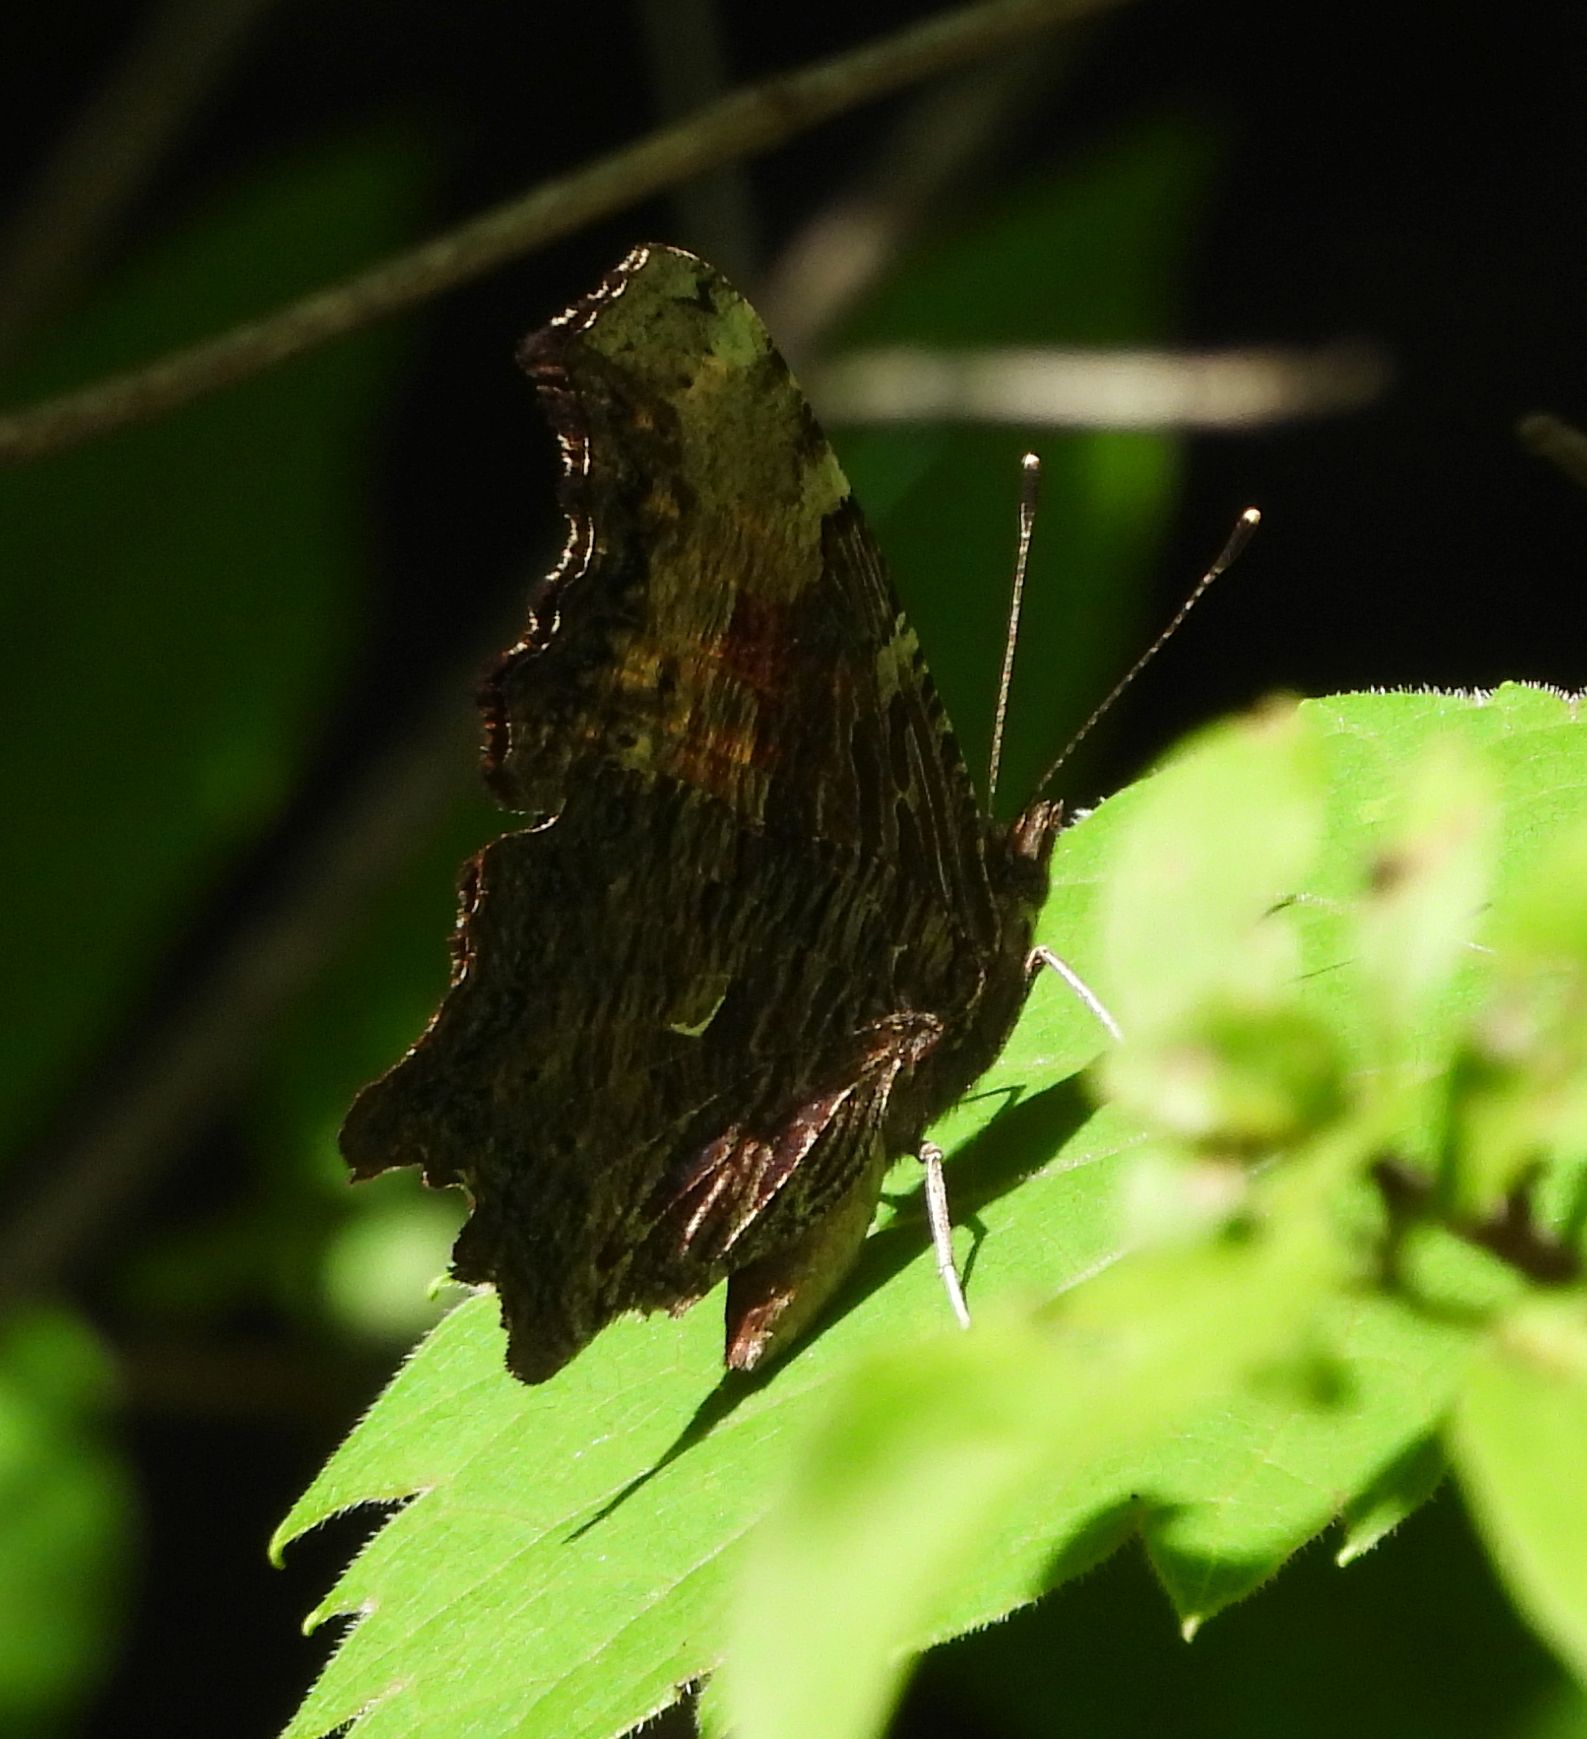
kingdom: Animalia
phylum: Arthropoda
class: Insecta
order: Lepidoptera
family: Nymphalidae
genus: Polygonia
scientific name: Polygonia progne
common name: Gray comma
